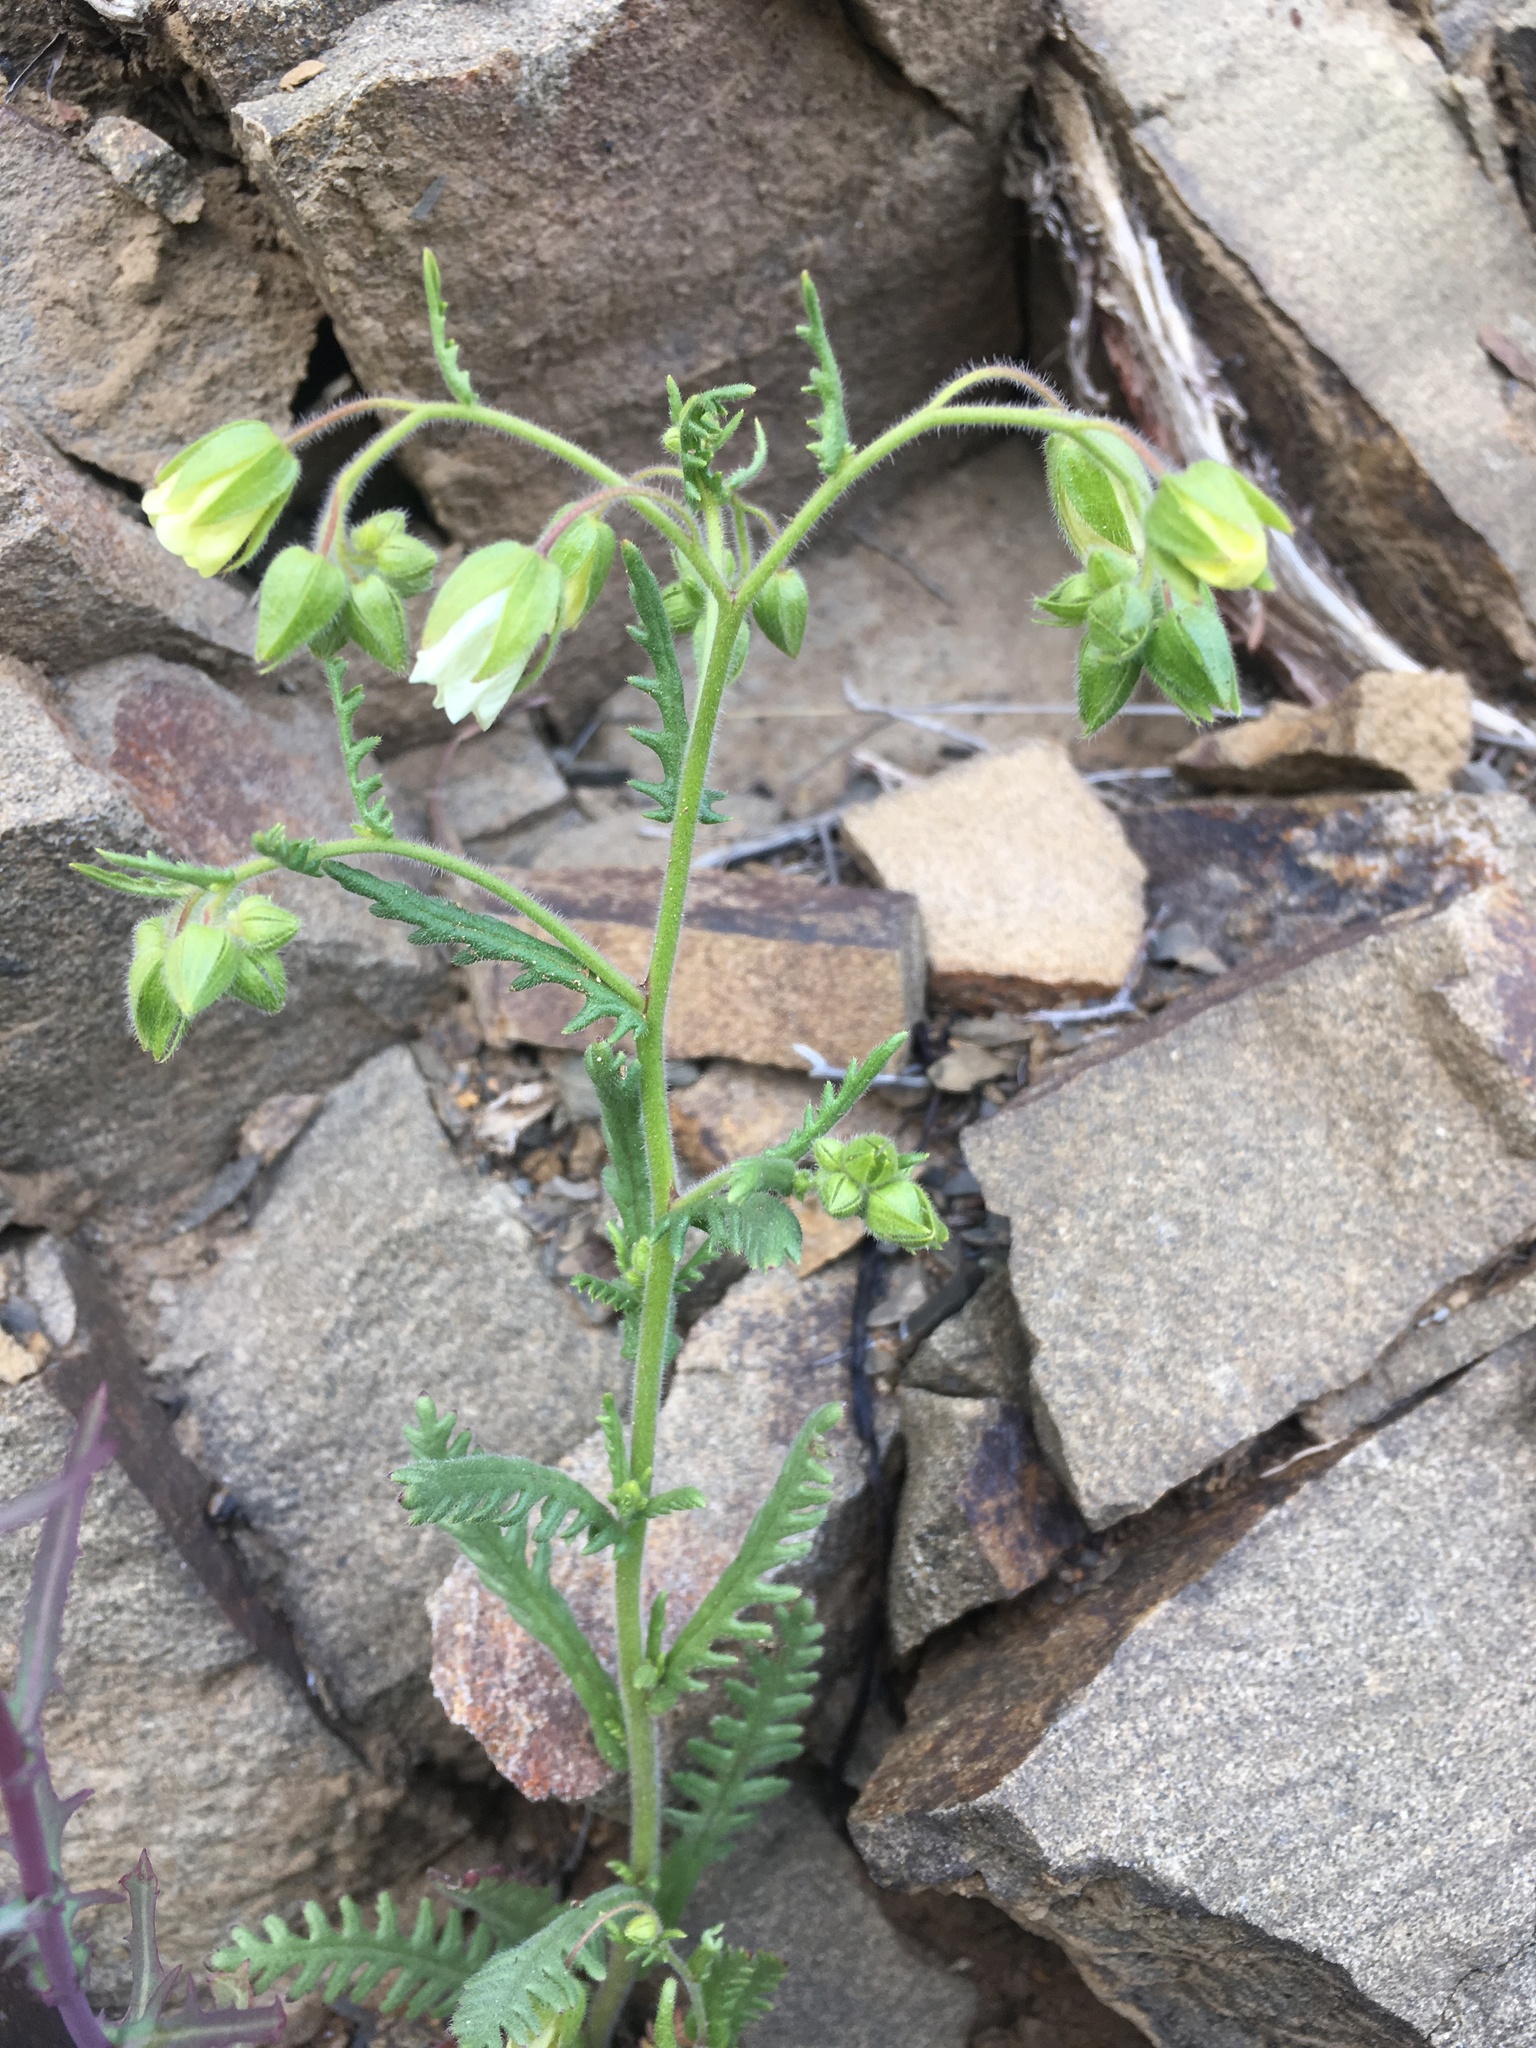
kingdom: Plantae
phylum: Tracheophyta
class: Magnoliopsida
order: Boraginales
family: Hydrophyllaceae
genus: Emmenanthe
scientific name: Emmenanthe penduliflora
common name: Whispering-bells
